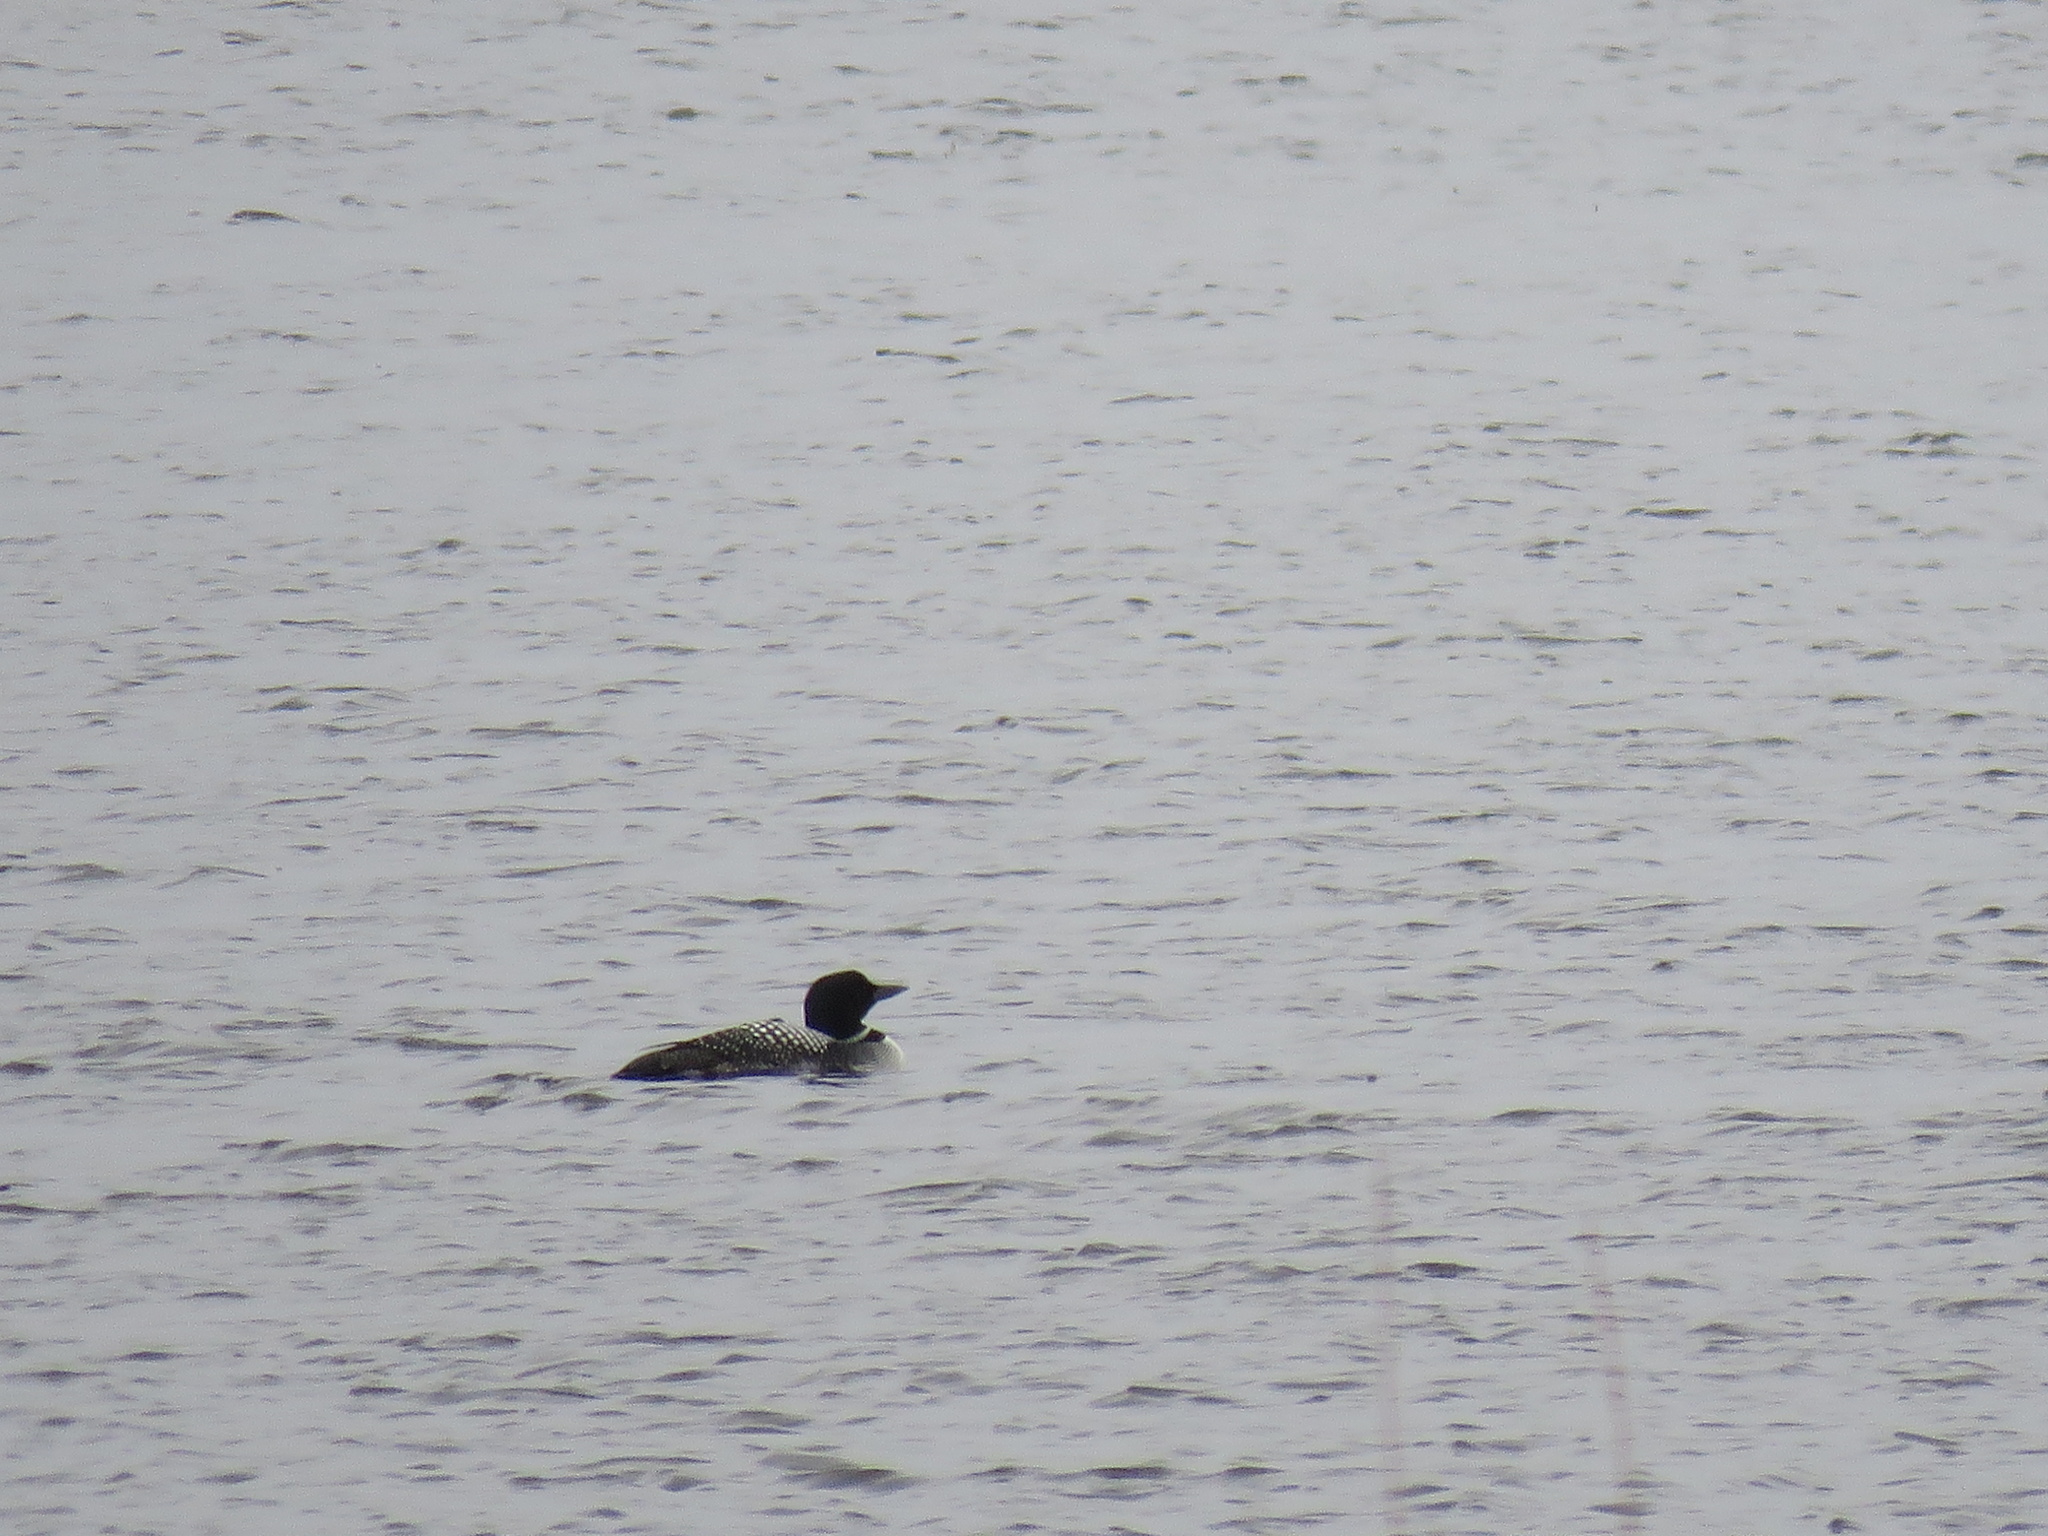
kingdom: Animalia
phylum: Chordata
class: Aves
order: Gaviiformes
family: Gaviidae
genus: Gavia
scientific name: Gavia immer
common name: Common loon
